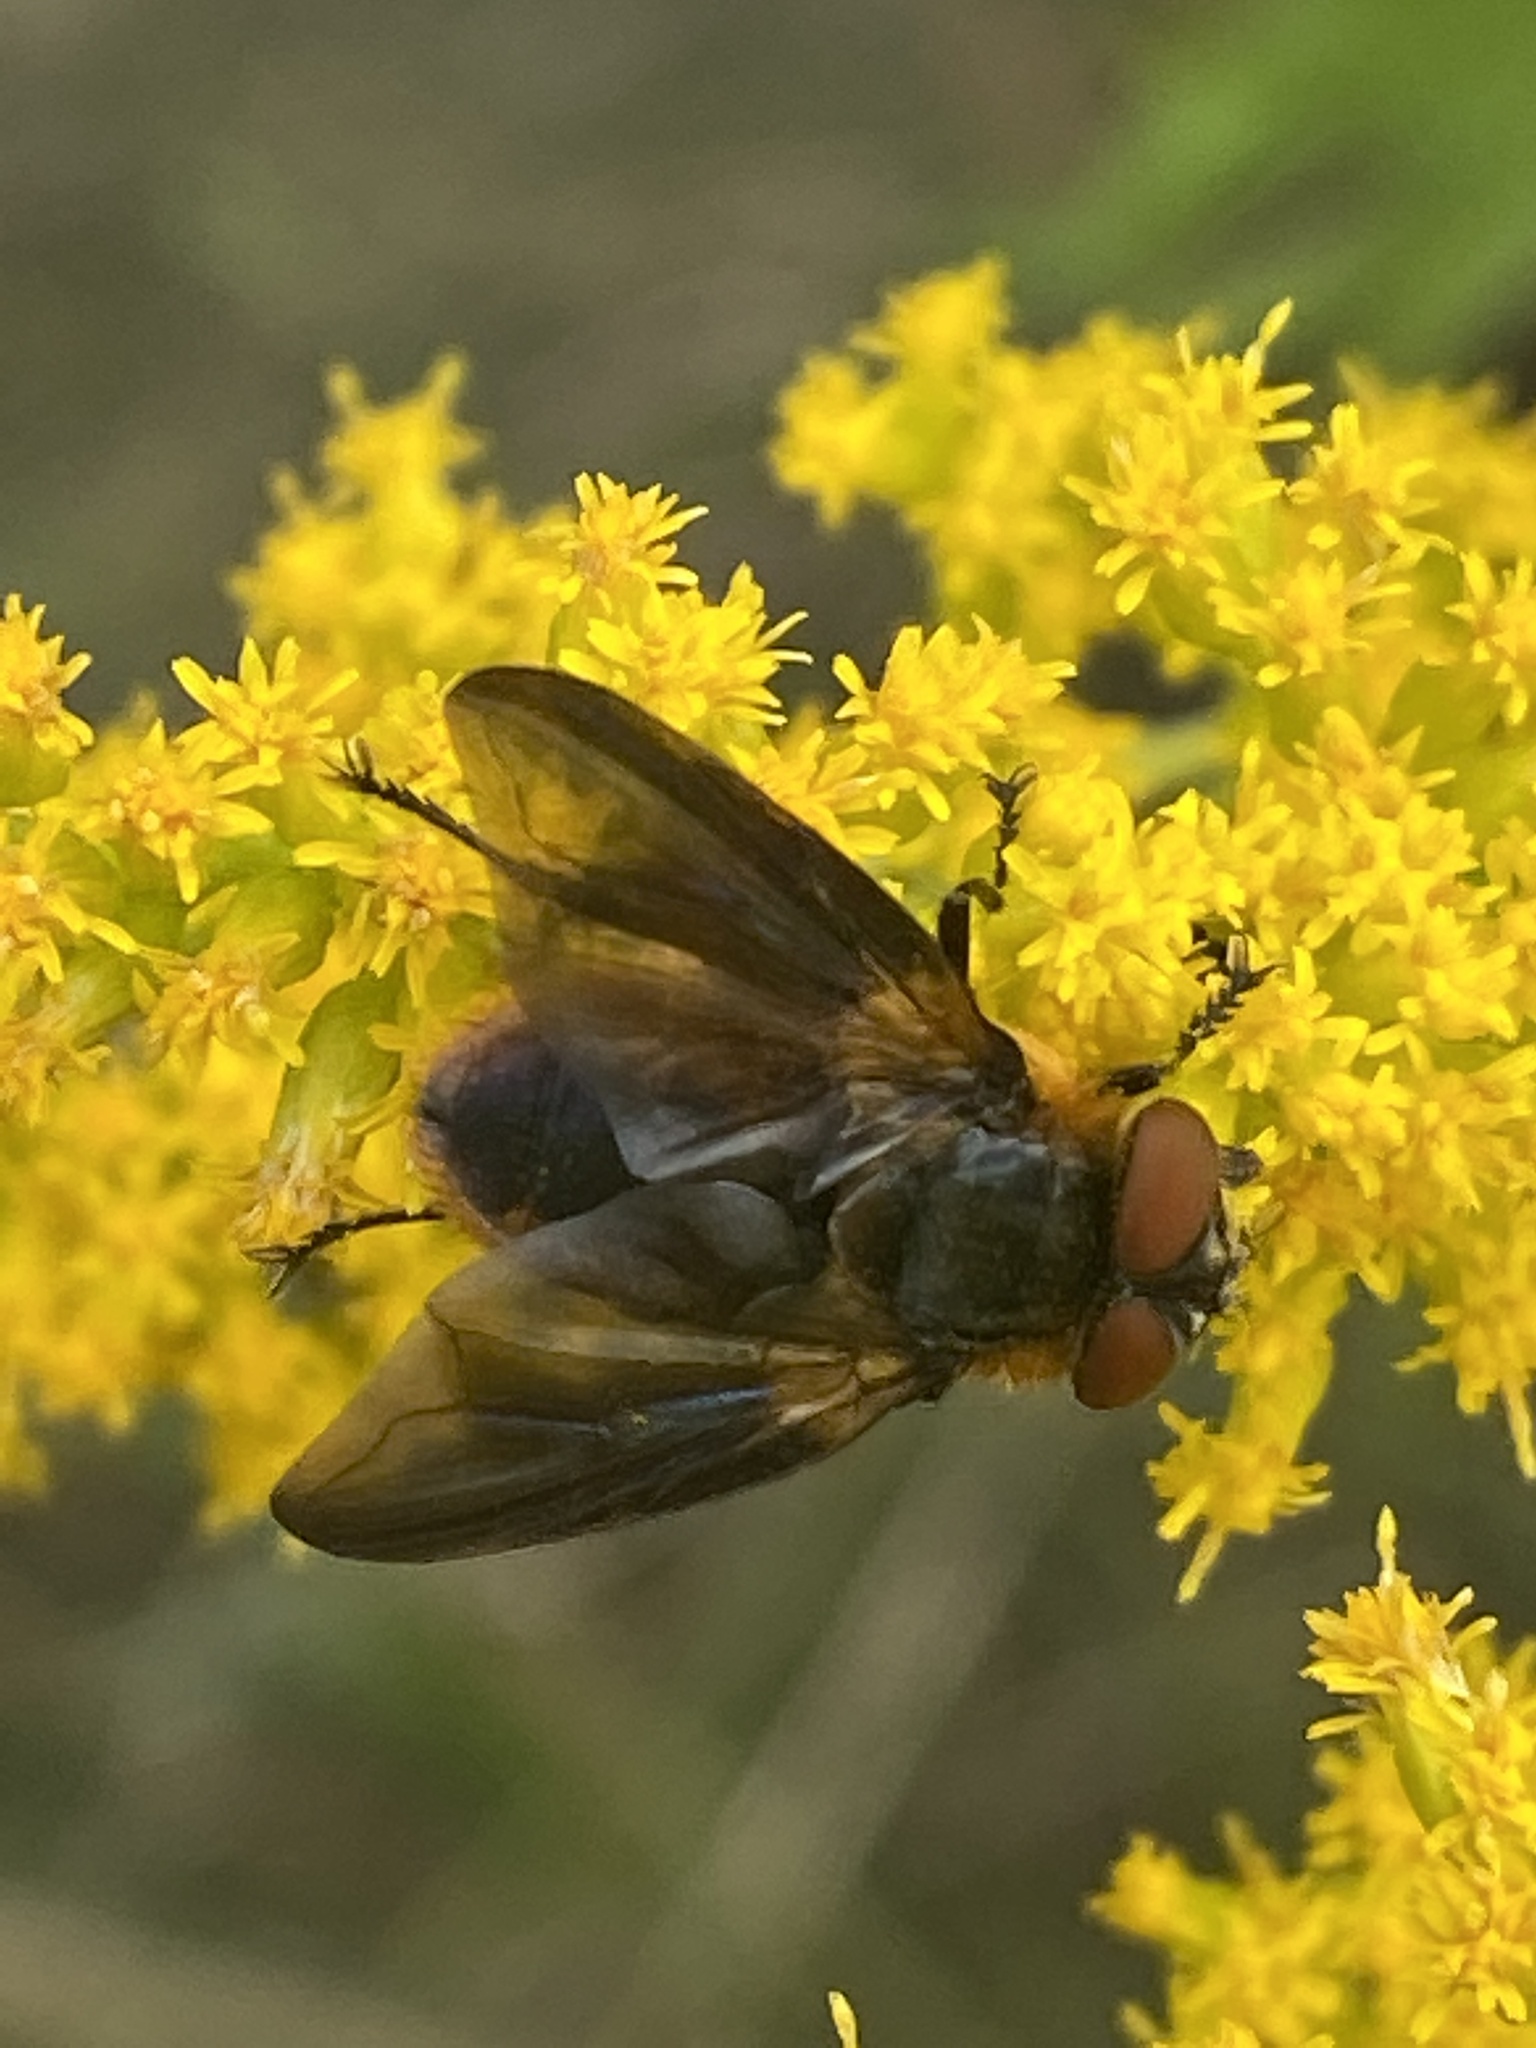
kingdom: Animalia
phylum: Arthropoda
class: Insecta
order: Diptera
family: Tachinidae
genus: Phasia
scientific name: Phasia hemiptera
